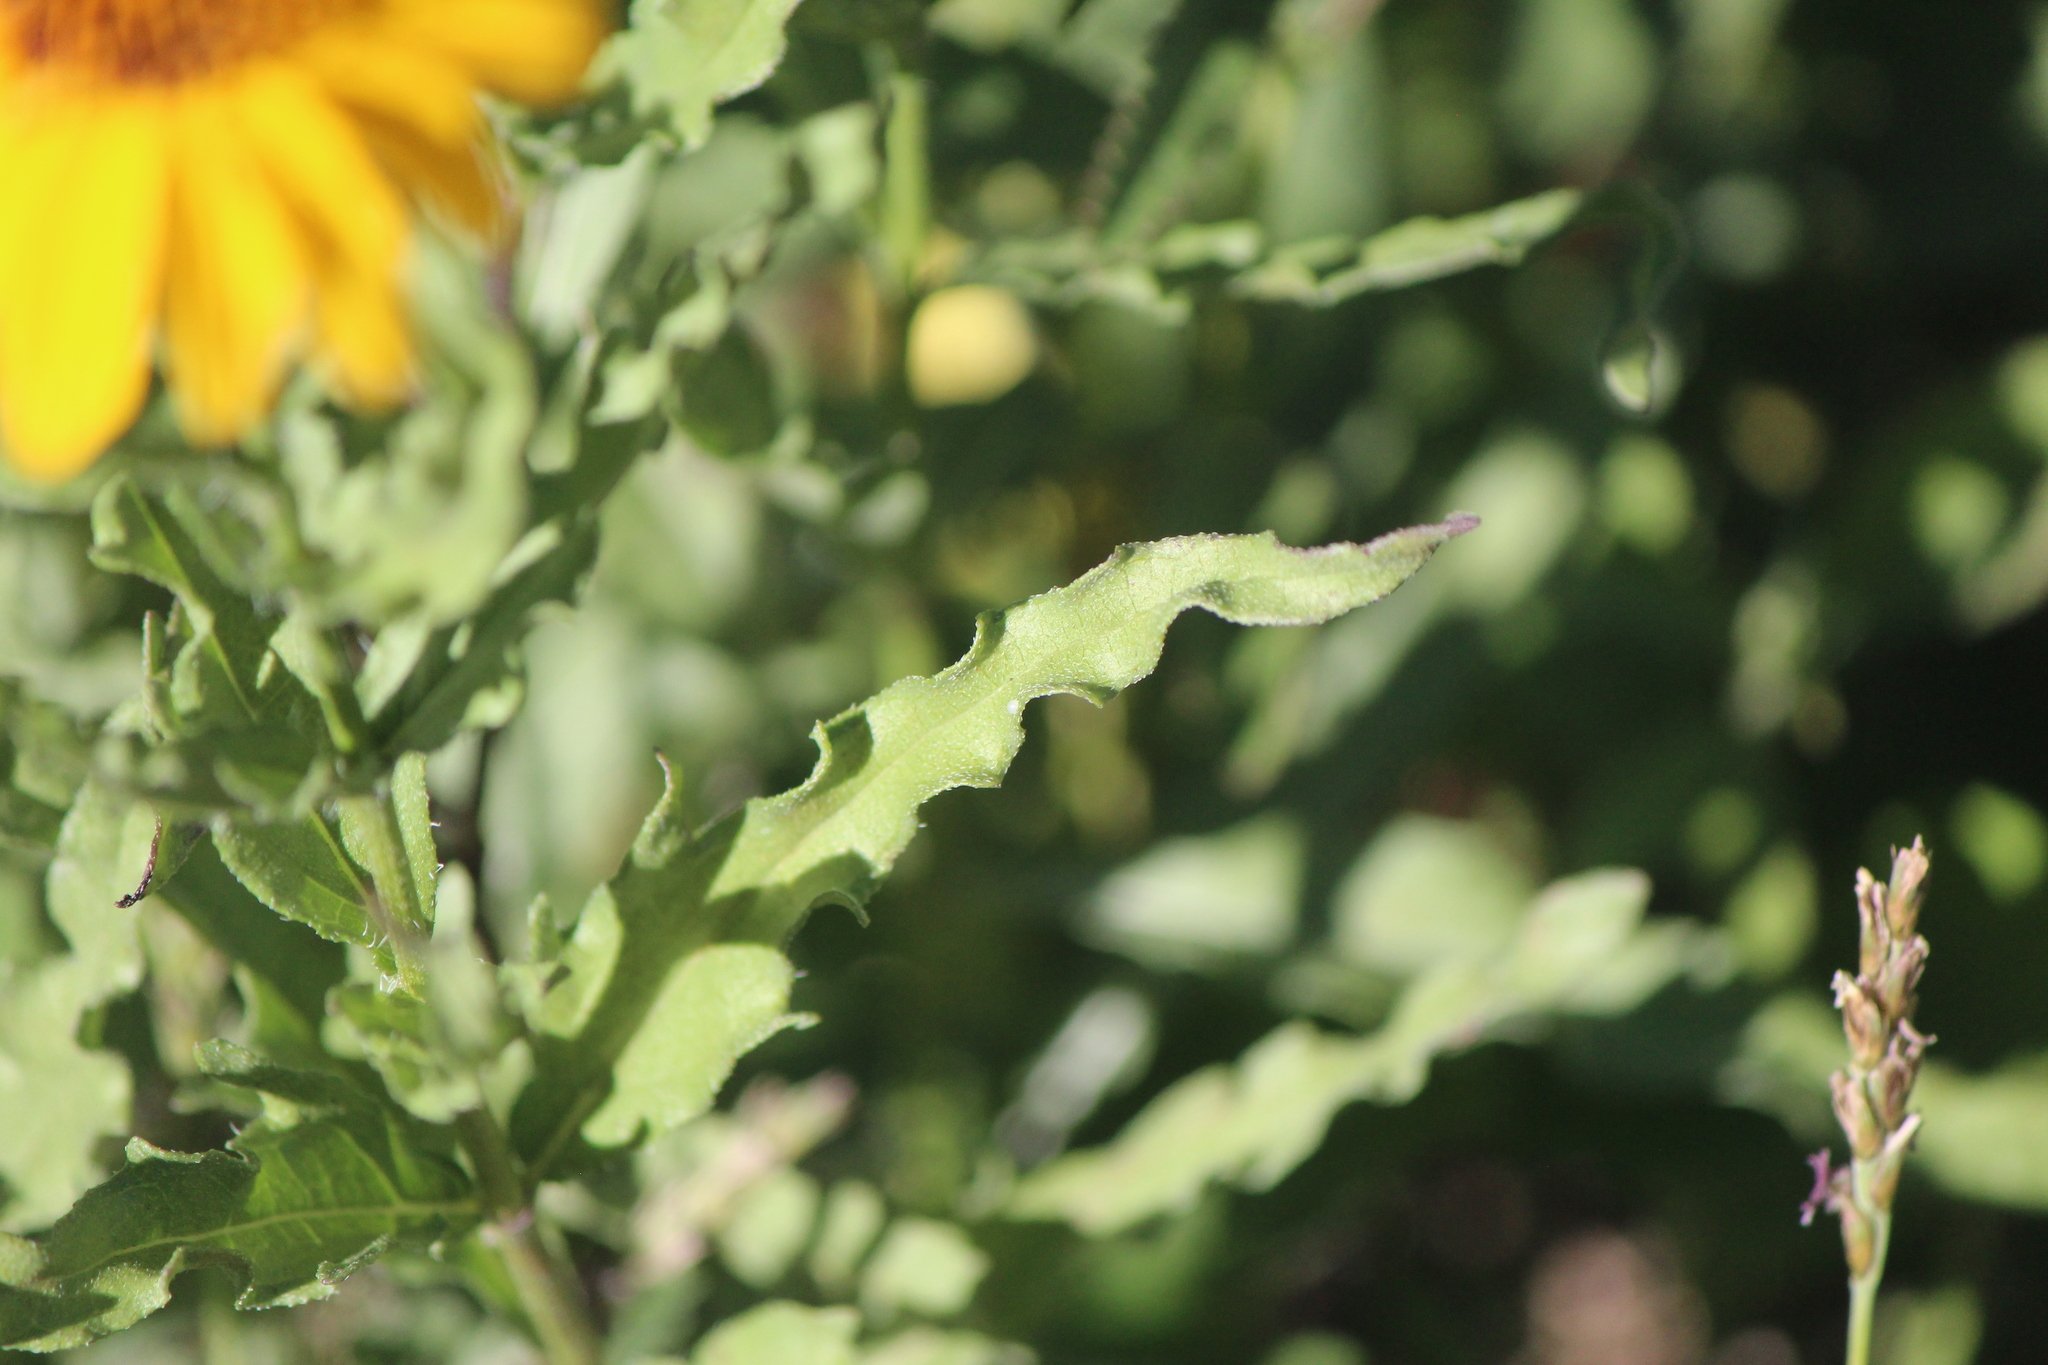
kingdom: Plantae
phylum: Tracheophyta
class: Magnoliopsida
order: Asterales
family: Asteraceae
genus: Helianthus
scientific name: Helianthus laciniatus
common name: Jagged-edge sunflower
